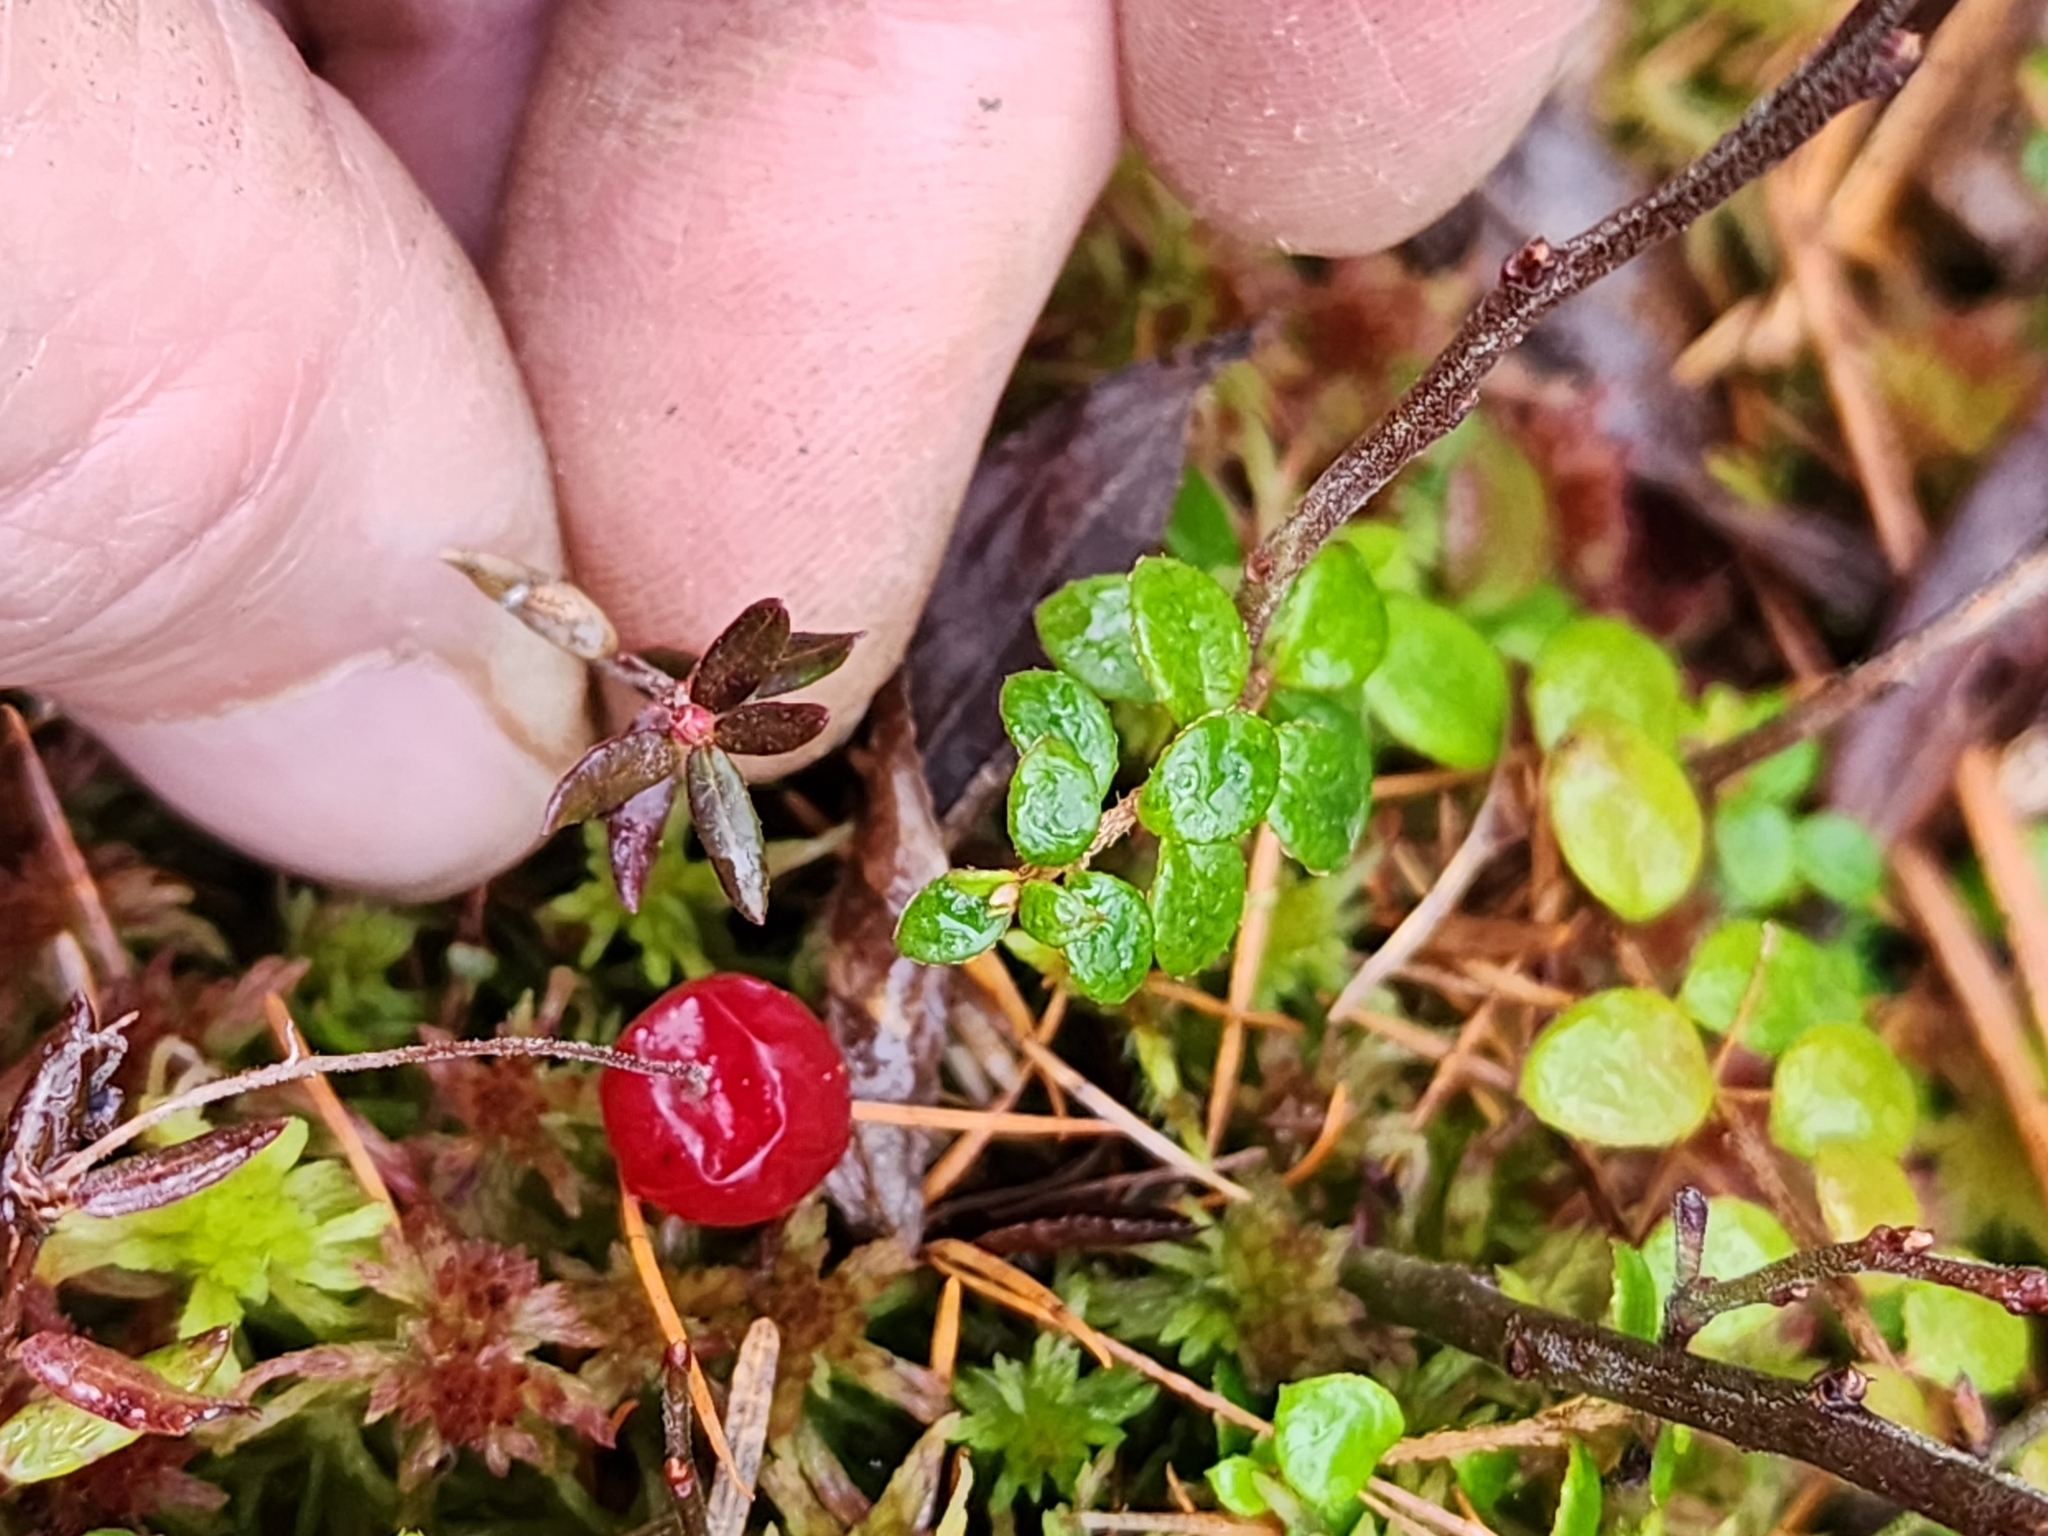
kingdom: Plantae
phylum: Tracheophyta
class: Magnoliopsida
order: Ericales
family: Ericaceae
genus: Vaccinium
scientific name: Vaccinium oxycoccos
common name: Cranberry
